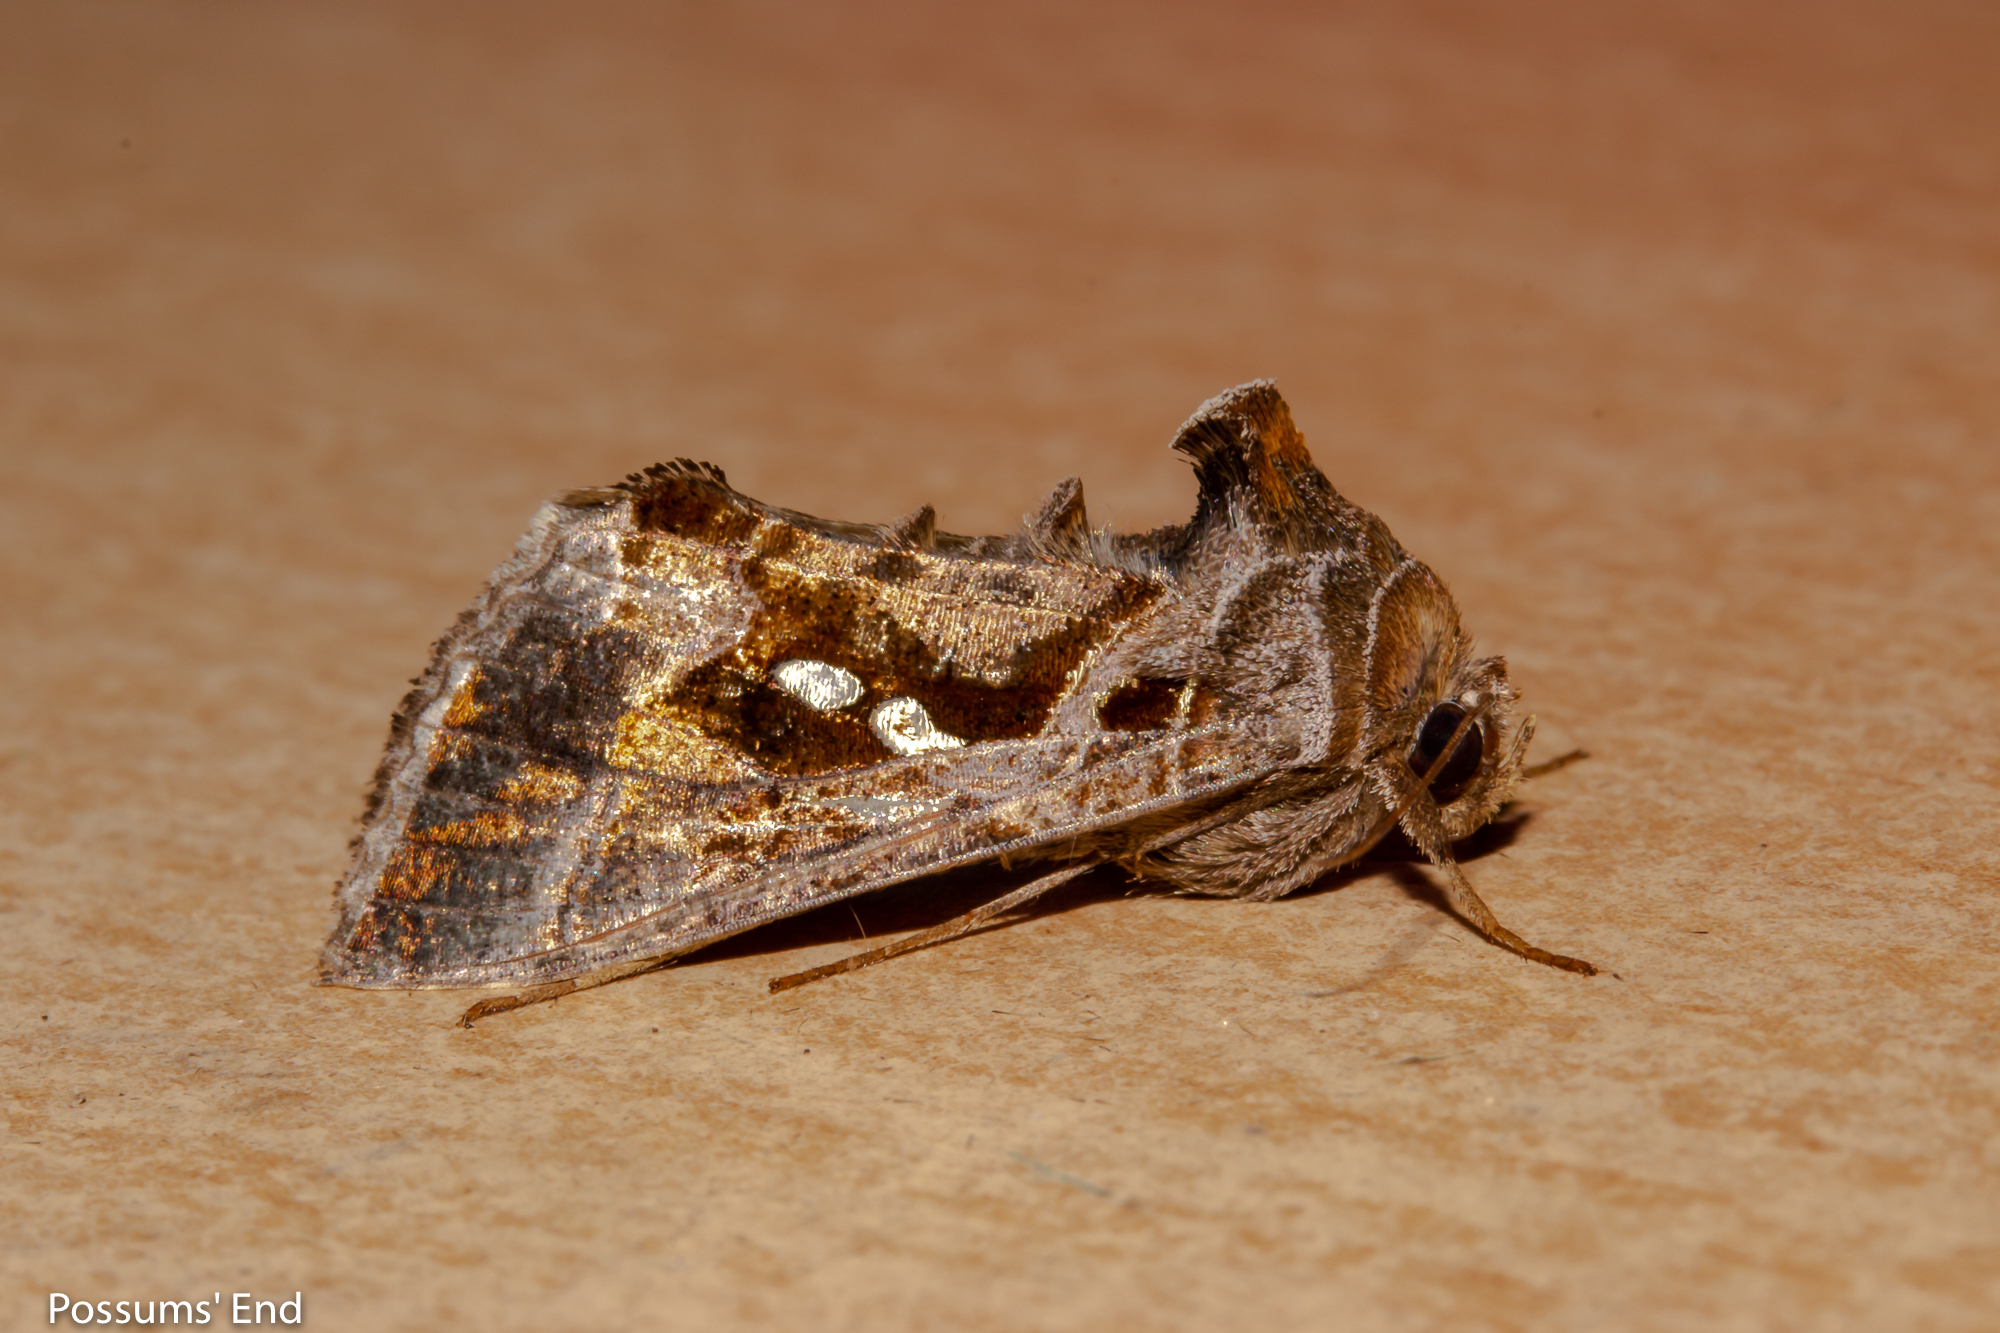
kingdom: Animalia
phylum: Arthropoda
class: Insecta
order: Lepidoptera
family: Noctuidae
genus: Chrysodeixis
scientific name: Chrysodeixis eriosoma
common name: Green garden looper
